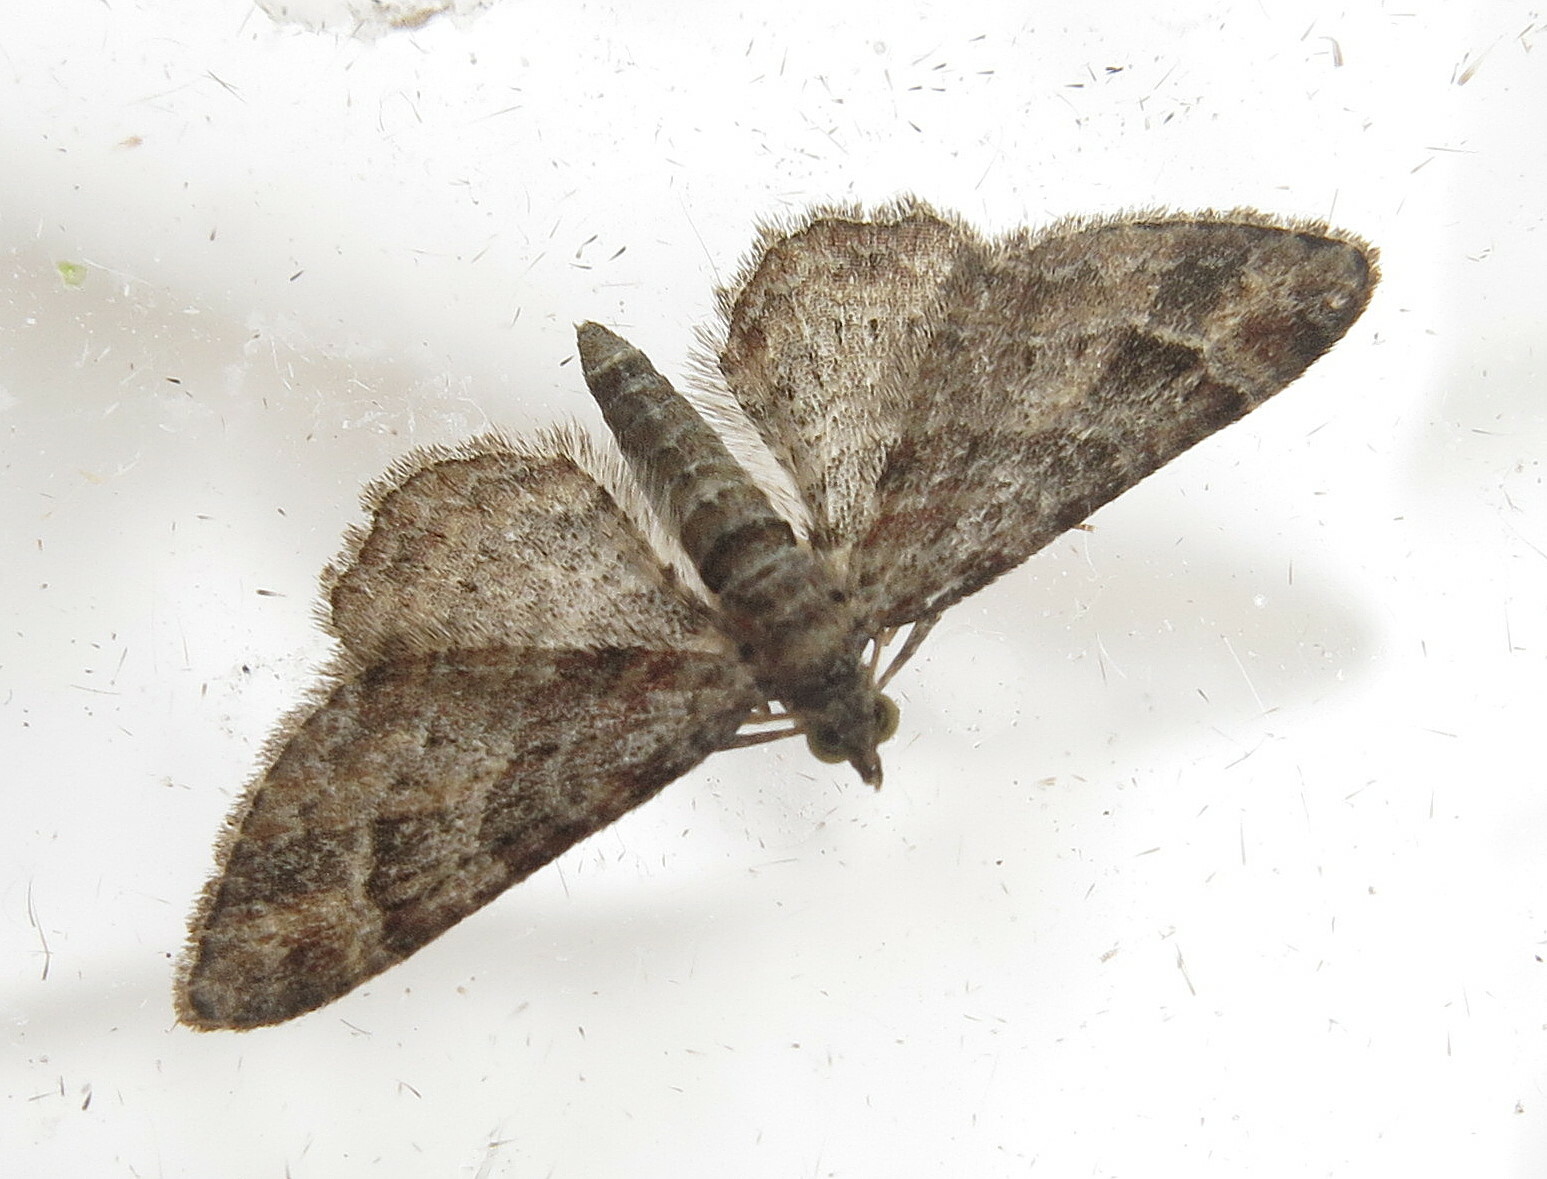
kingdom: Animalia
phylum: Arthropoda
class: Insecta
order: Lepidoptera
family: Geometridae
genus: Gymnoscelis
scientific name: Gymnoscelis rufifasciata
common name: Double-striped pug
